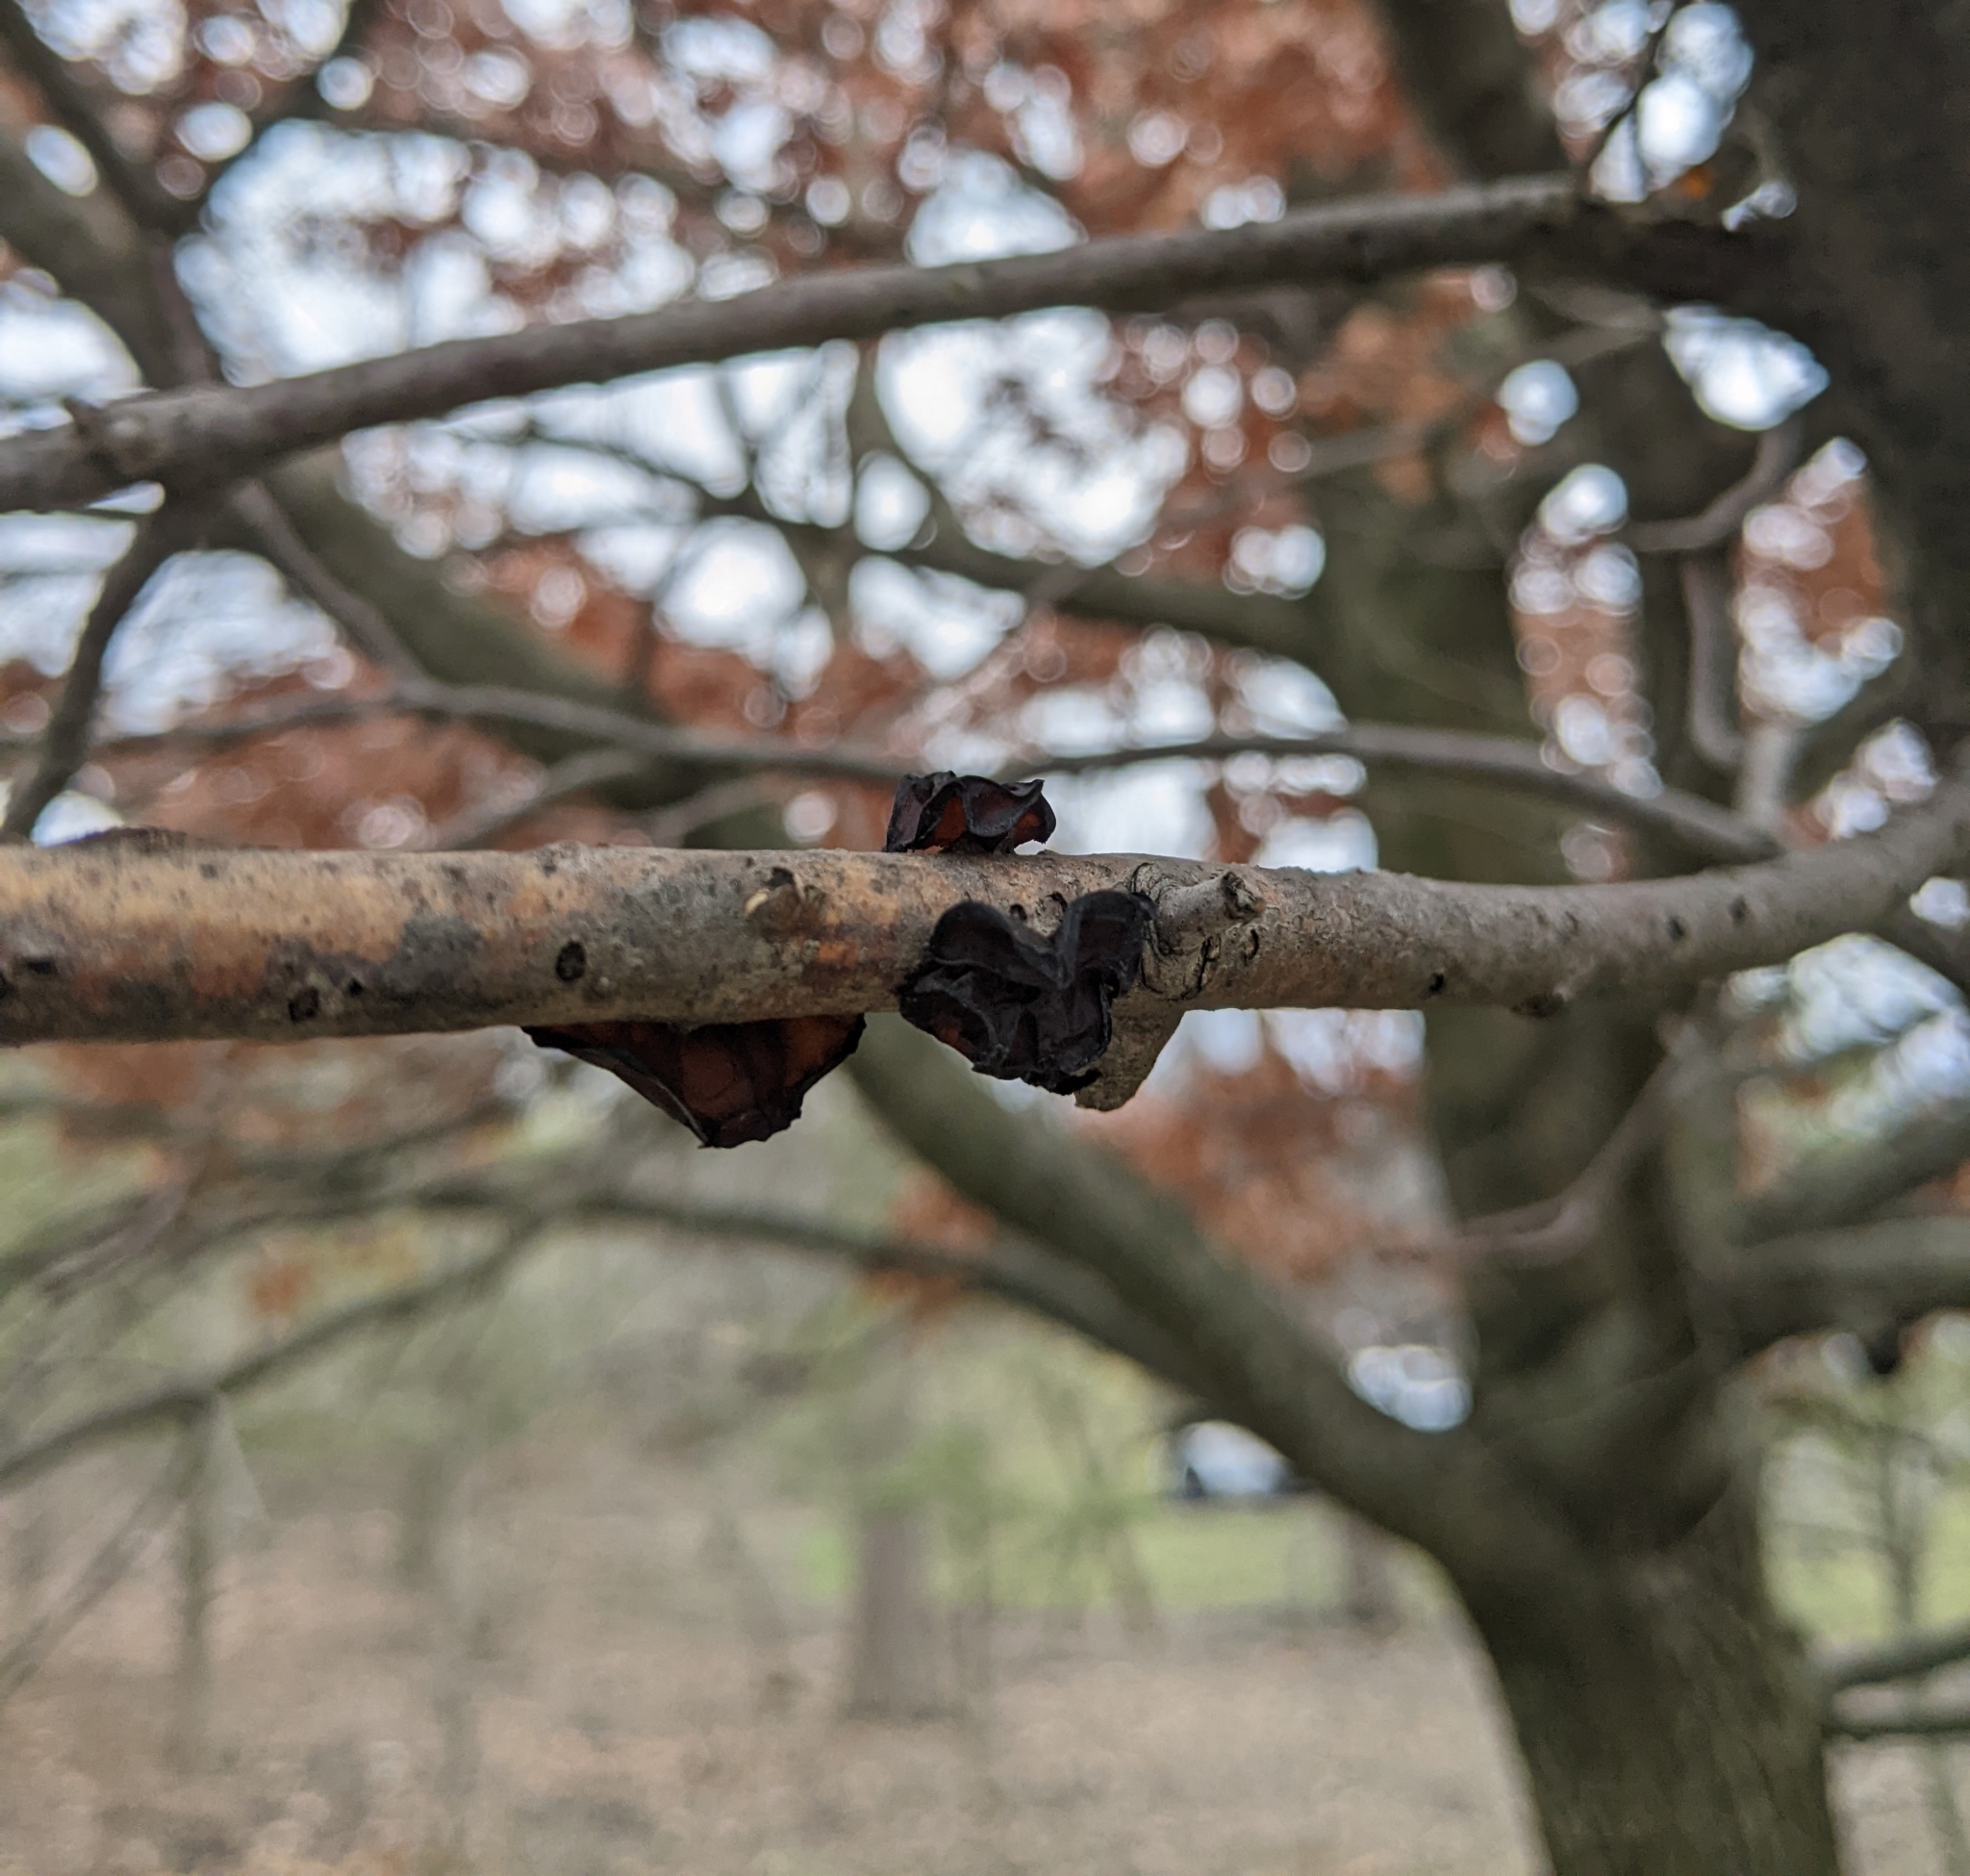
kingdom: Fungi
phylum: Basidiomycota
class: Agaricomycetes
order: Auriculariales
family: Auriculariaceae
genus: Exidia
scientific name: Exidia
